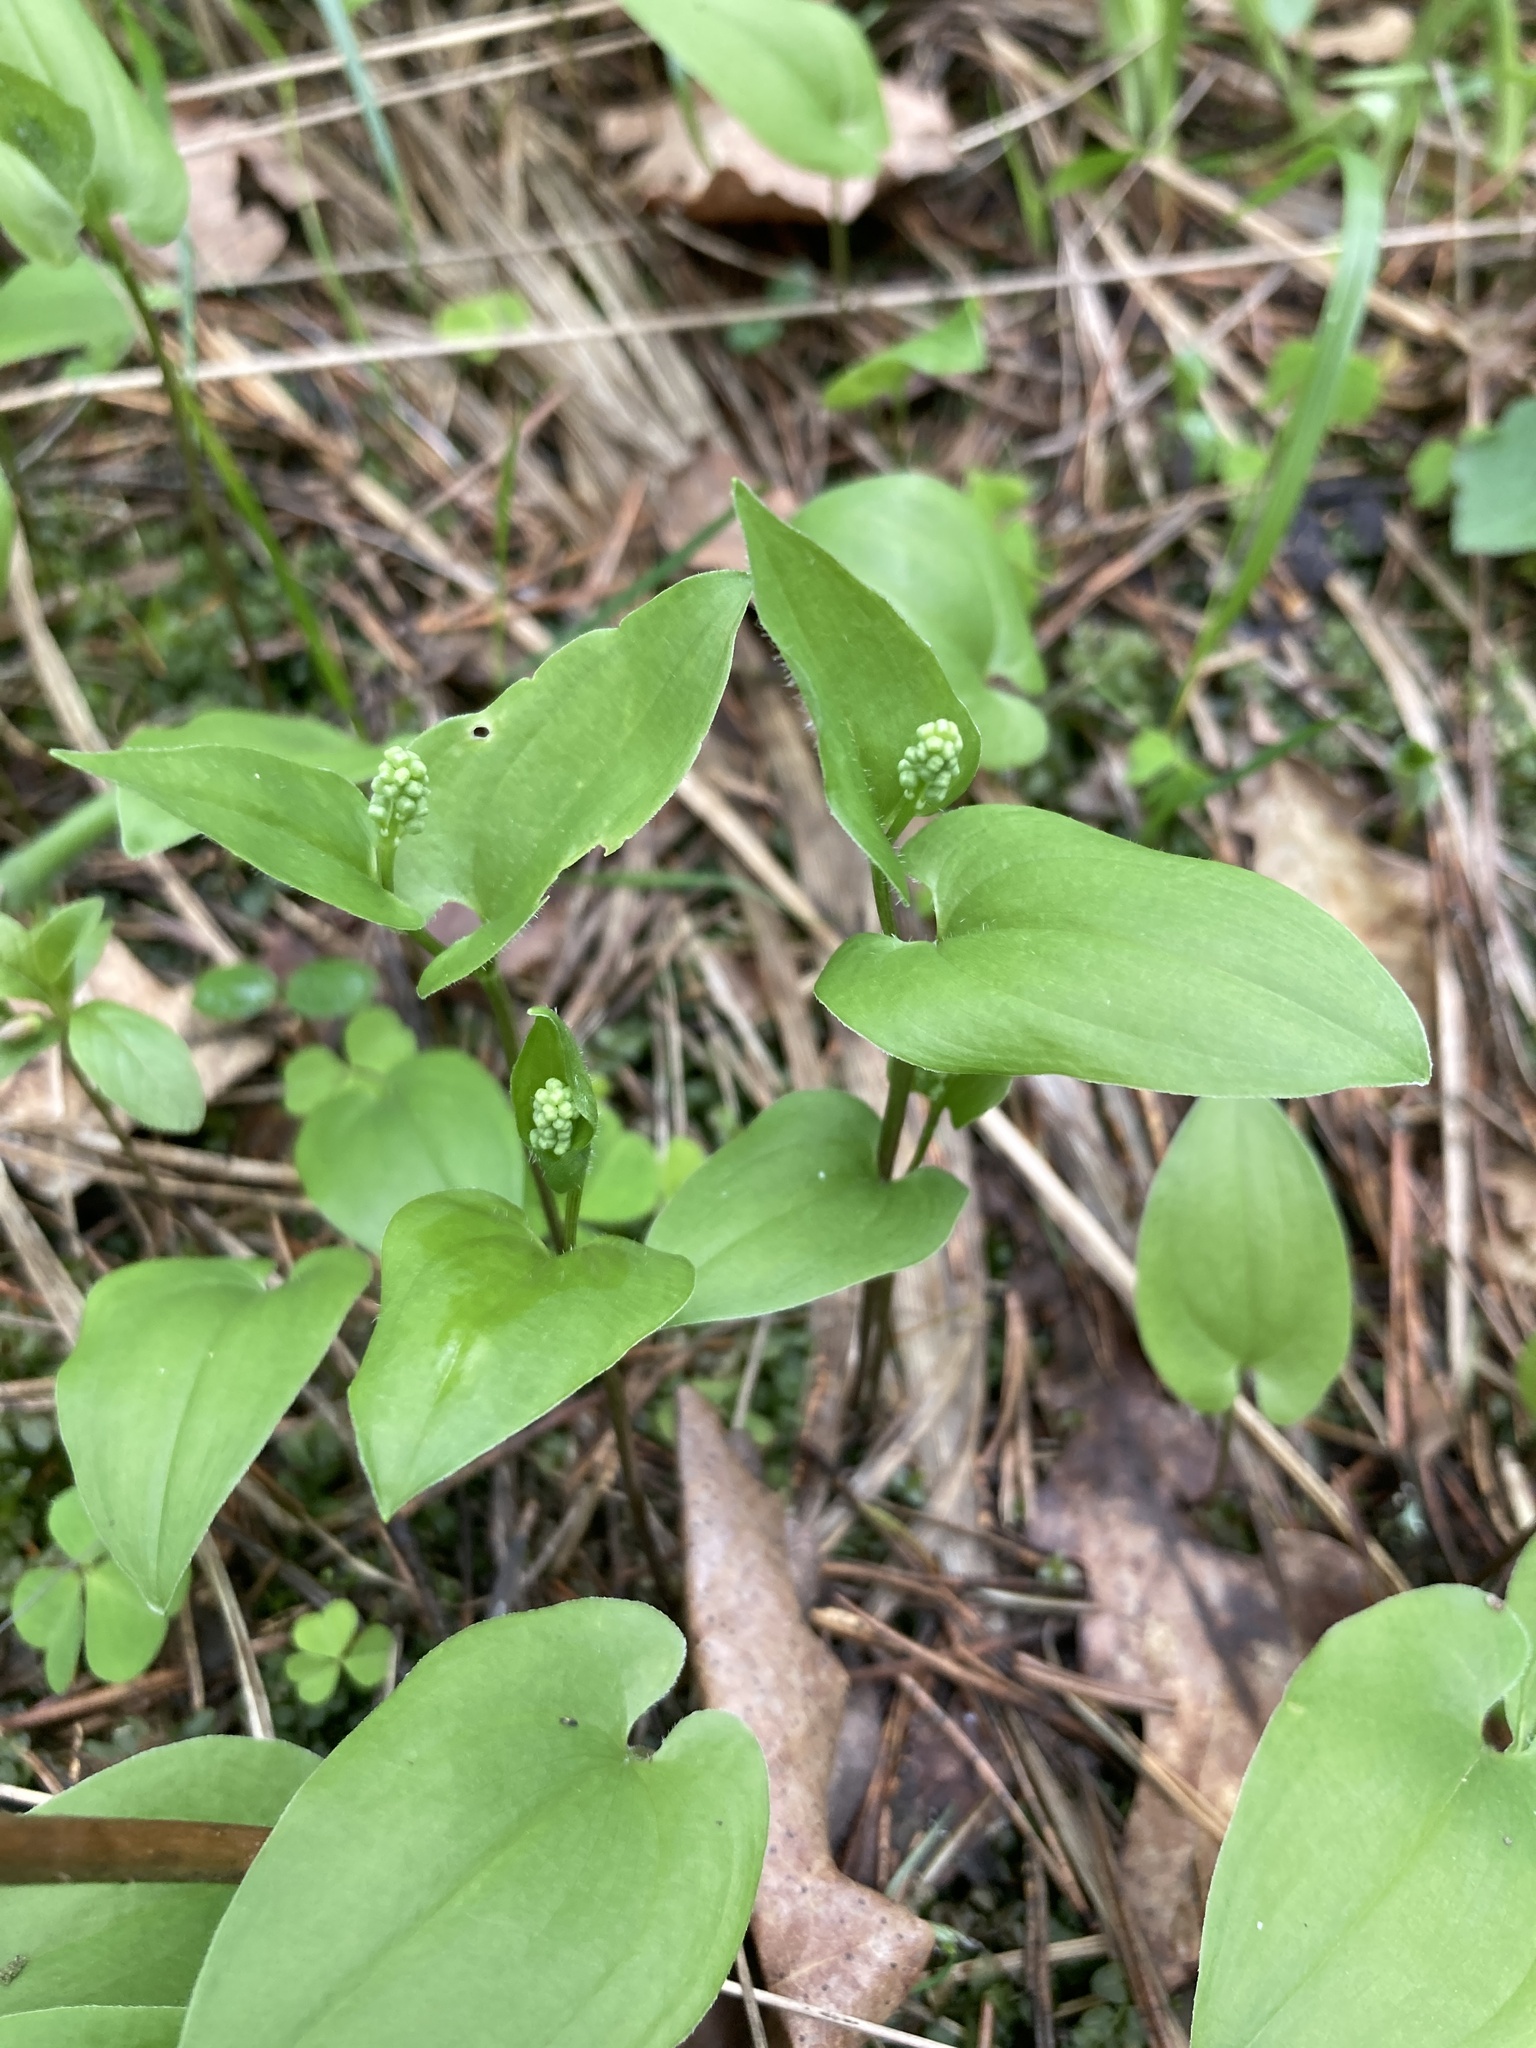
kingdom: Plantae
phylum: Tracheophyta
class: Liliopsida
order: Asparagales
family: Asparagaceae
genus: Maianthemum
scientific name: Maianthemum bifolium
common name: May lily
